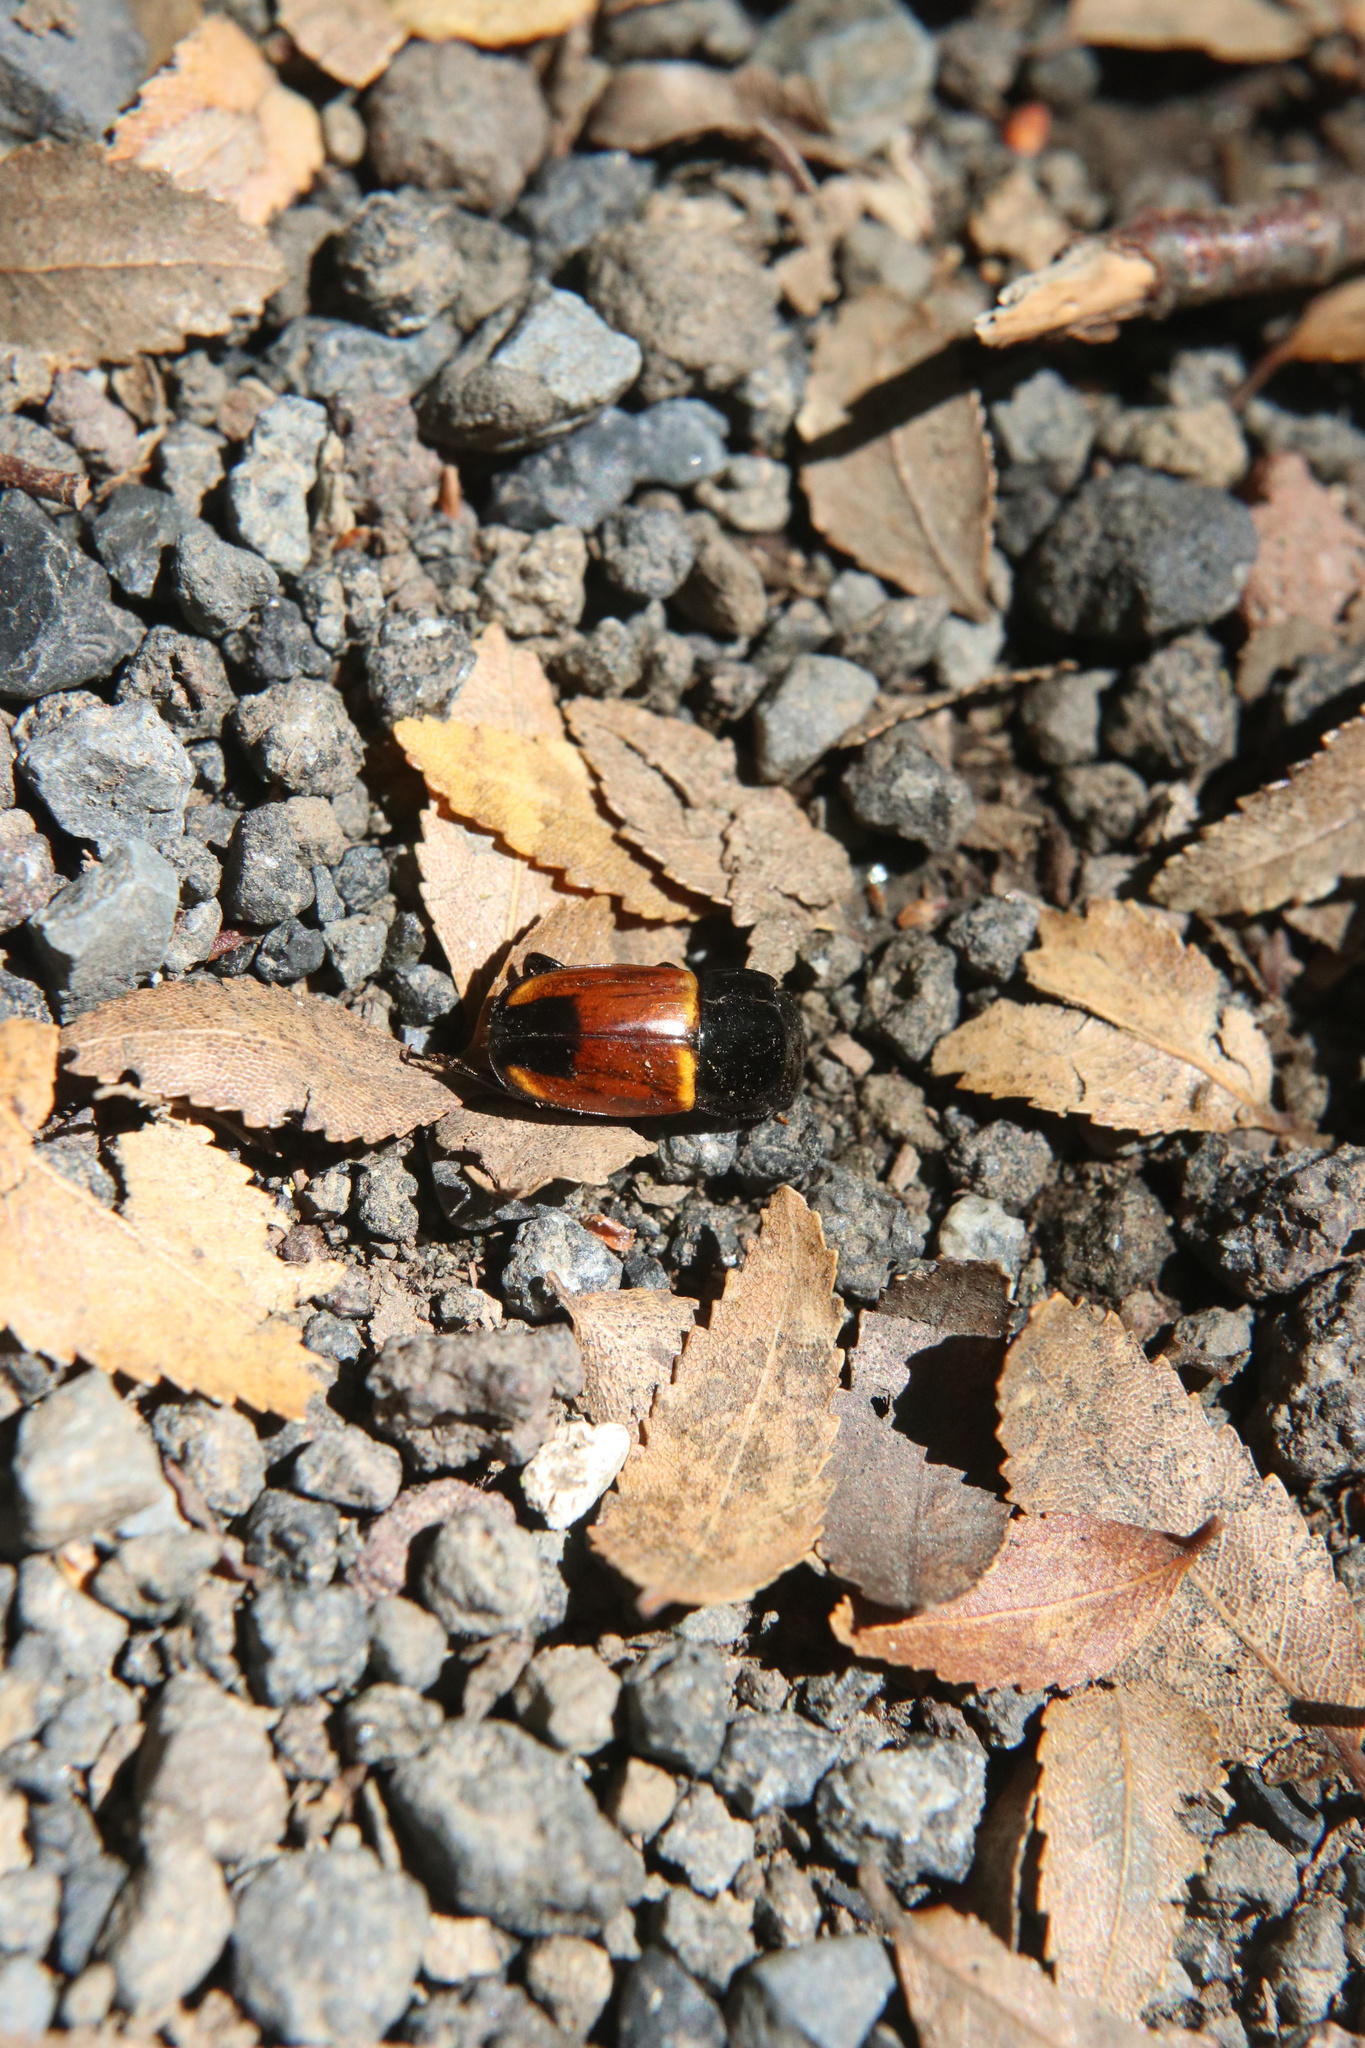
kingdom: Animalia
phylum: Arthropoda
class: Insecta
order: Coleoptera
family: Nitidulidae
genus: Paromia
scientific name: Paromia dorcoides
